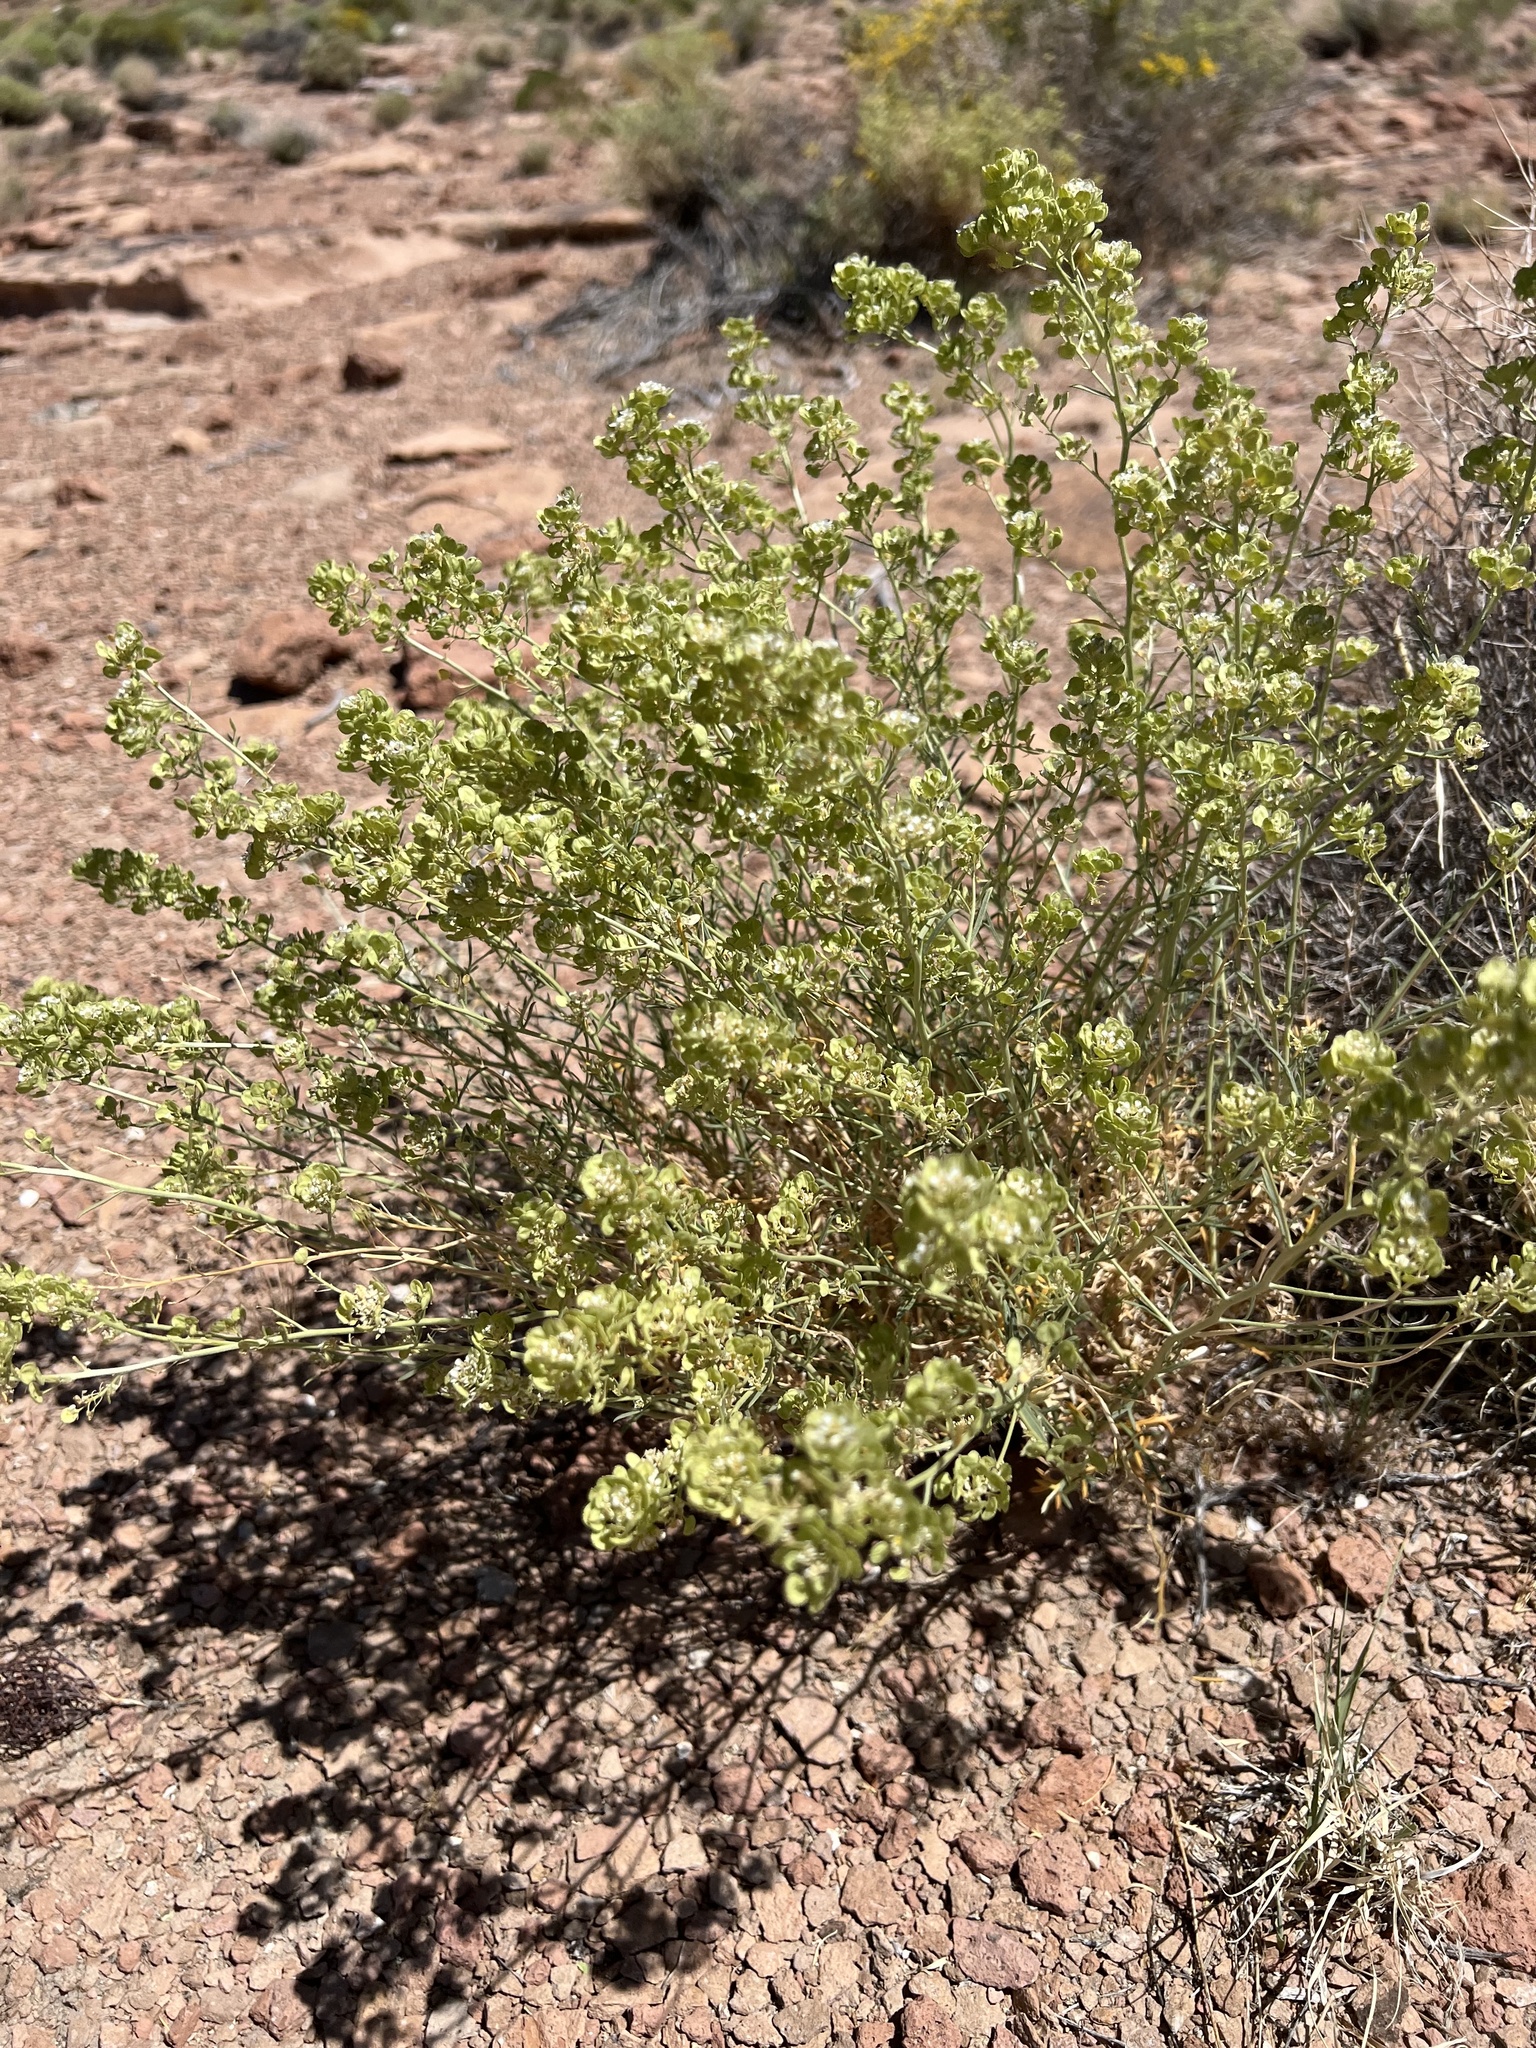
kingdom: Plantae
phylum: Tracheophyta
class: Magnoliopsida
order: Brassicales
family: Brassicaceae
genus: Lepidium
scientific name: Lepidium fremontii
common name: Fremont's pepperwort
